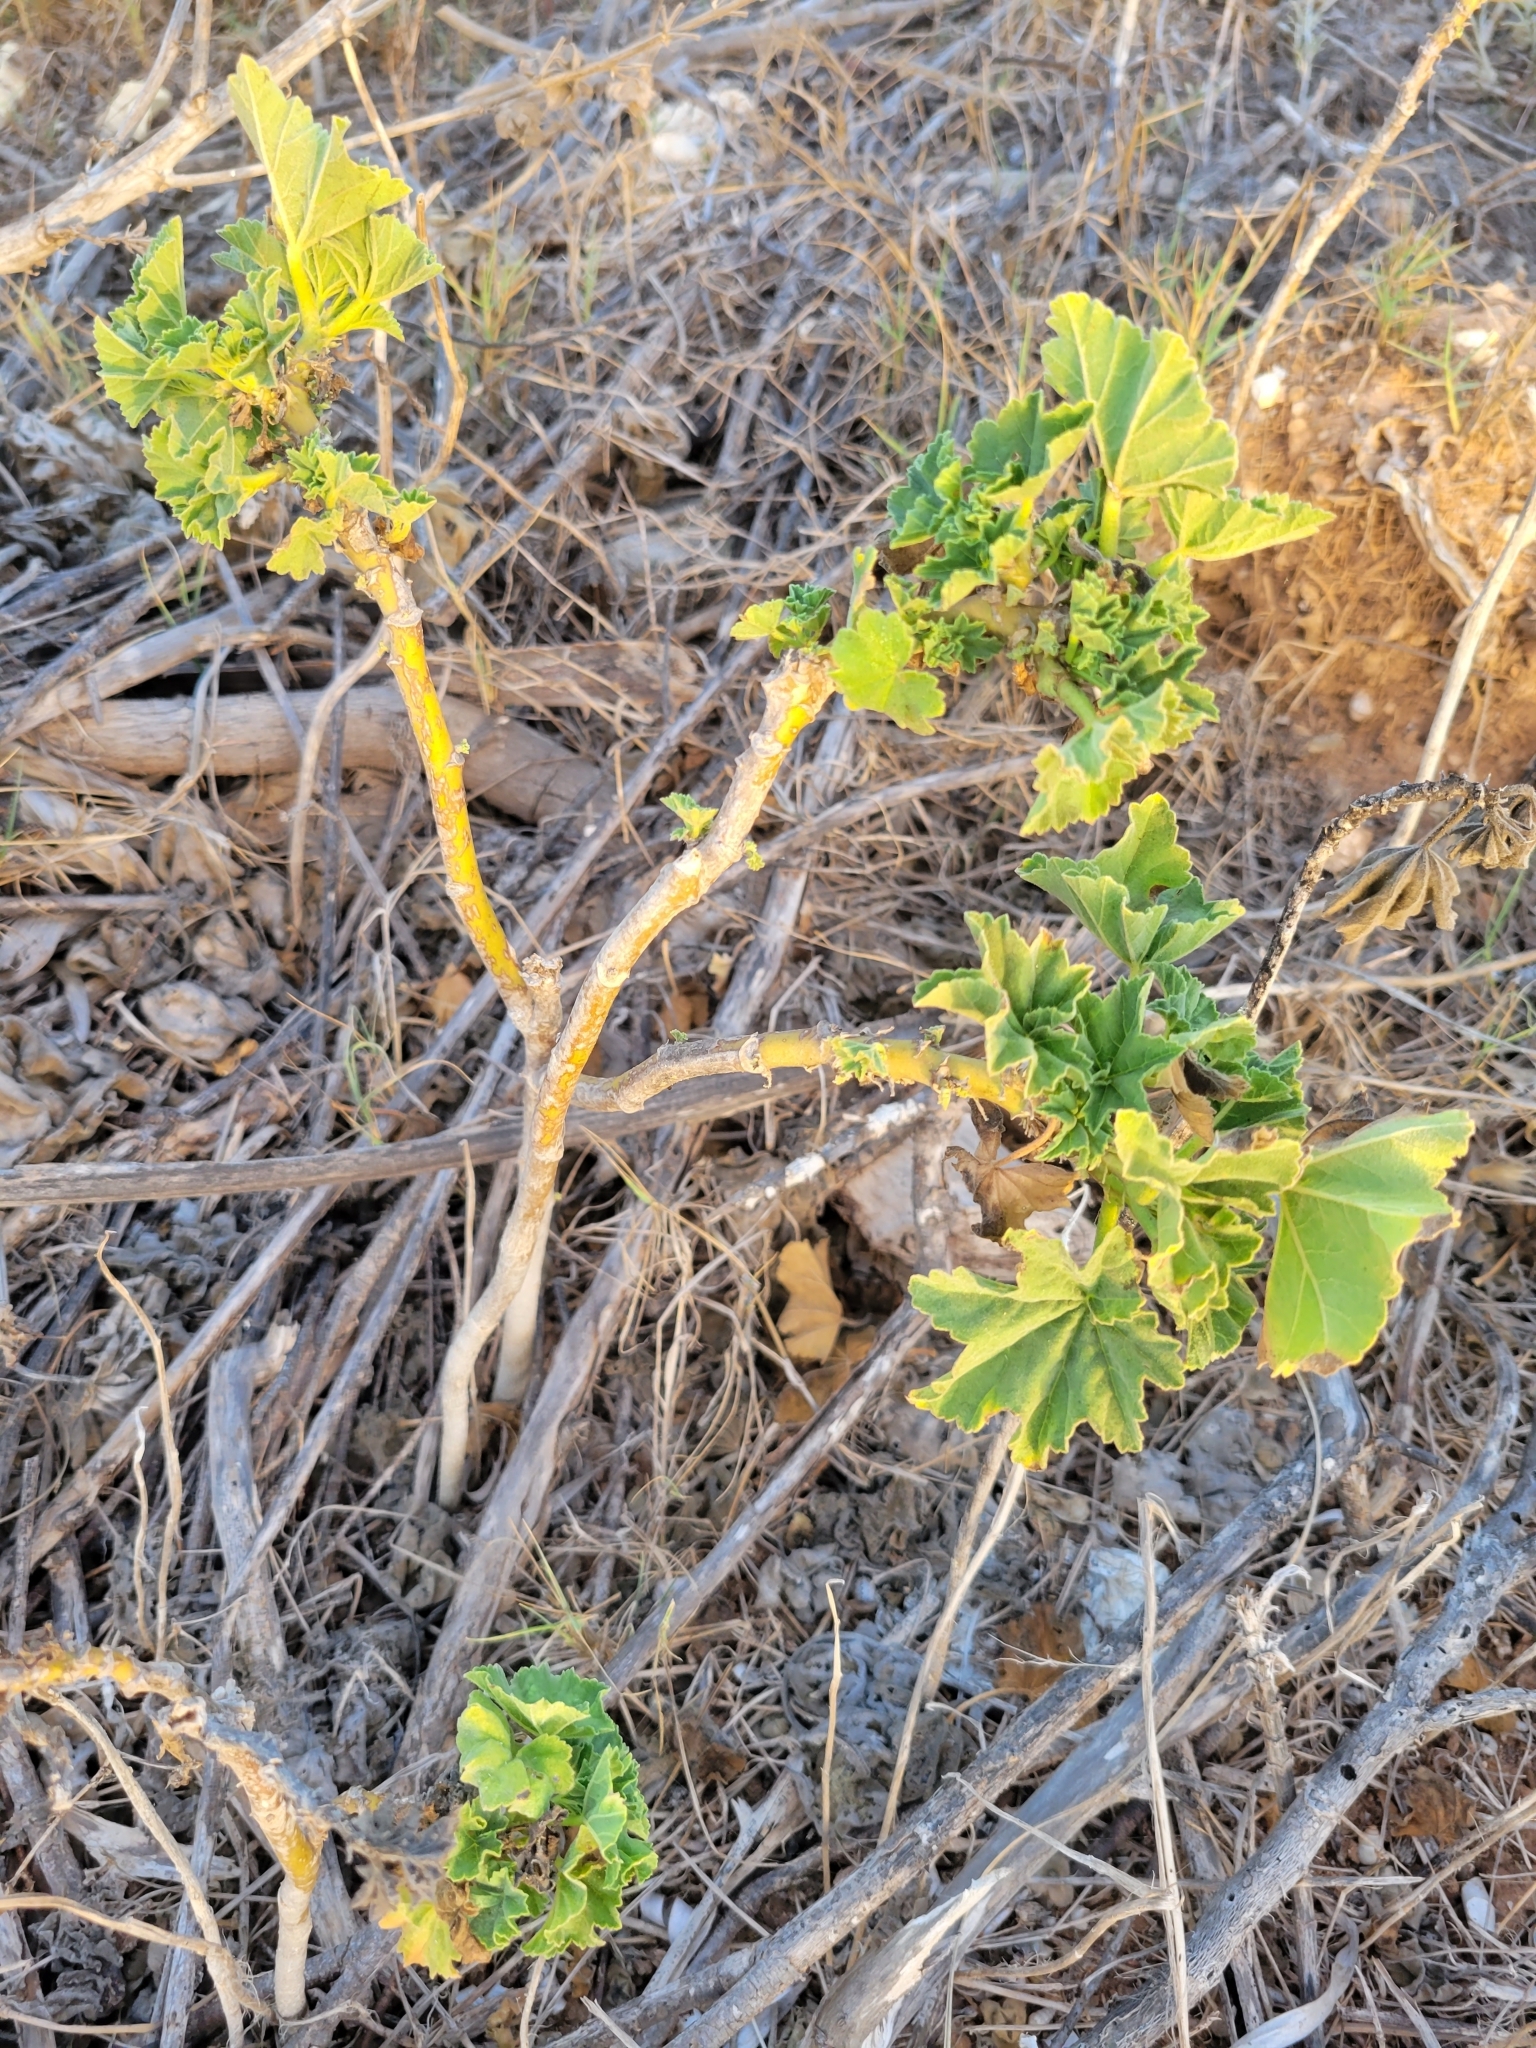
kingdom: Plantae
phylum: Tracheophyta
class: Magnoliopsida
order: Malvales
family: Malvaceae
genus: Malva
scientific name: Malva arborea
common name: Tree mallow
